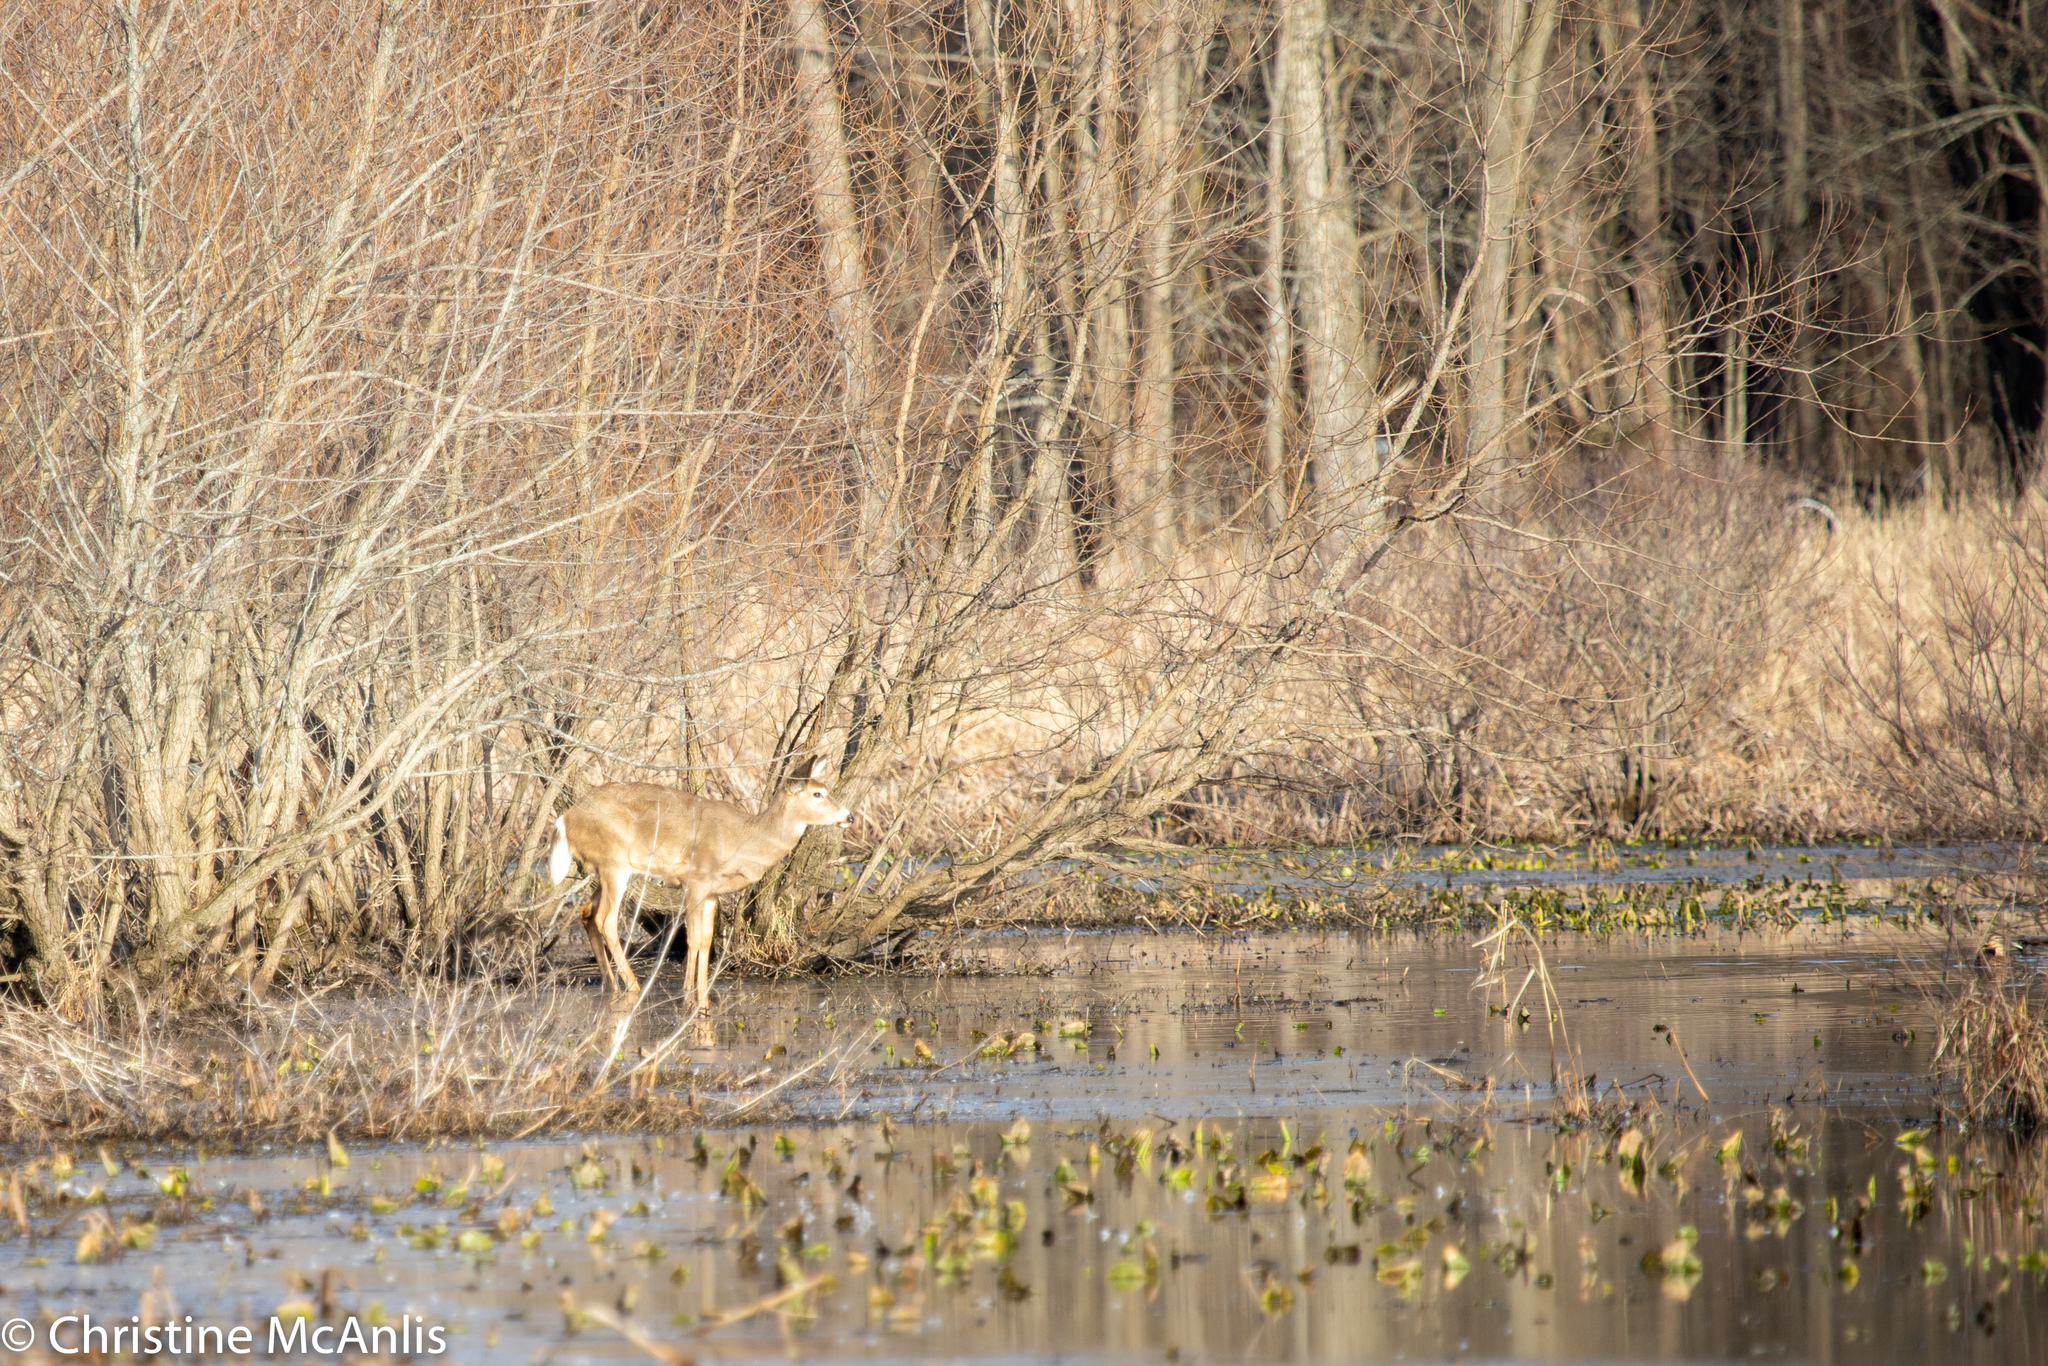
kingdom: Animalia
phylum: Chordata
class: Mammalia
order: Artiodactyla
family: Cervidae
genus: Odocoileus
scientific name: Odocoileus virginianus
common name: White-tailed deer
